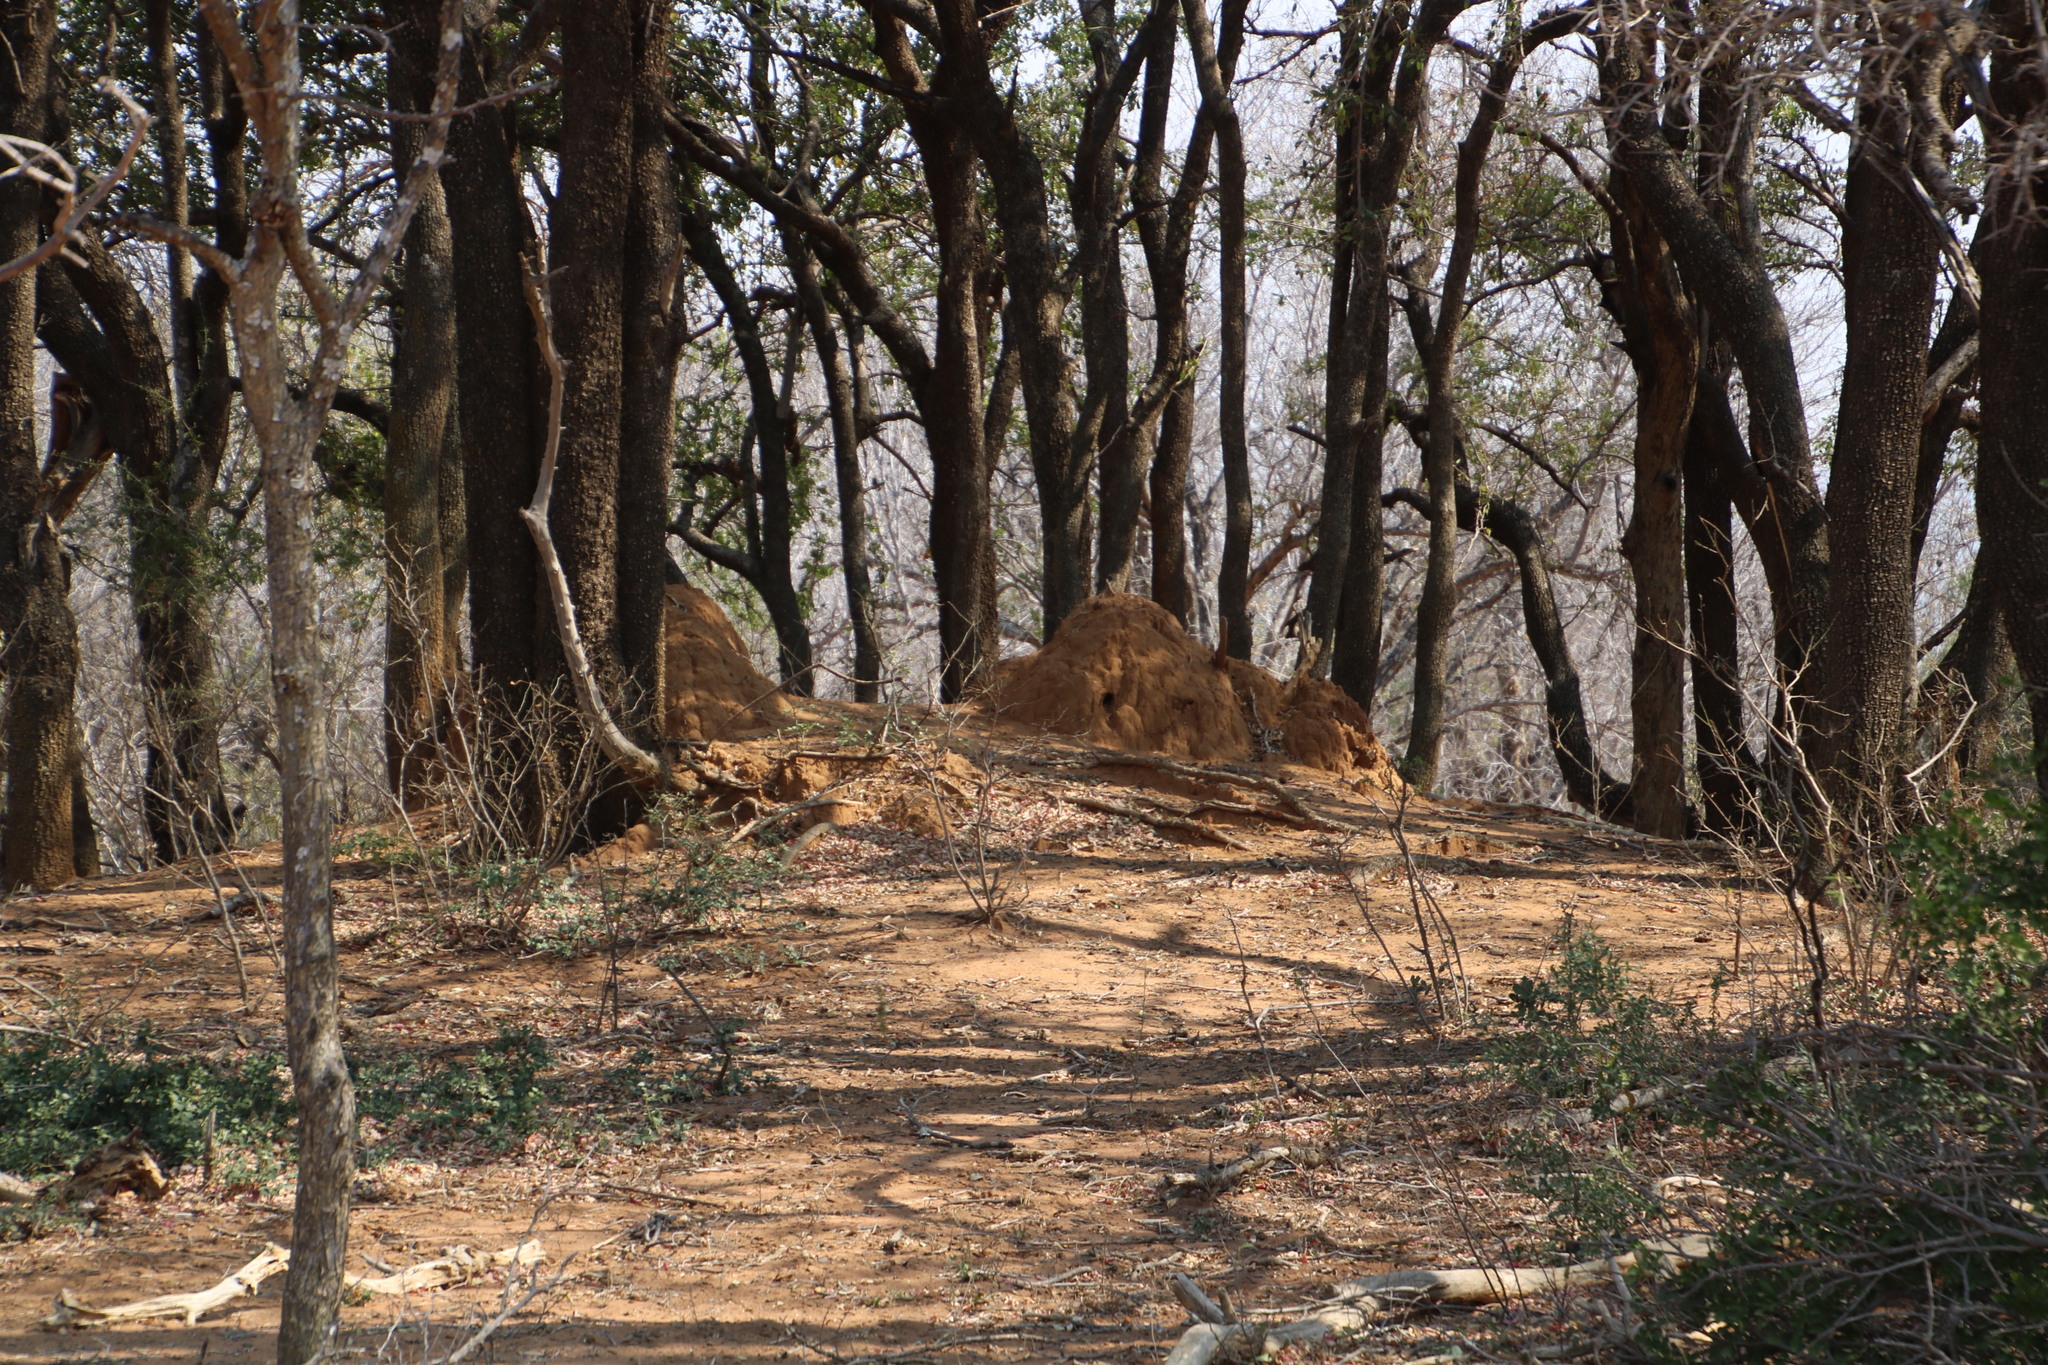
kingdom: Plantae
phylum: Tracheophyta
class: Magnoliopsida
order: Malpighiales
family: Euphorbiaceae
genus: Spirostachys
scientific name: Spirostachys africana
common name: Tamboti
